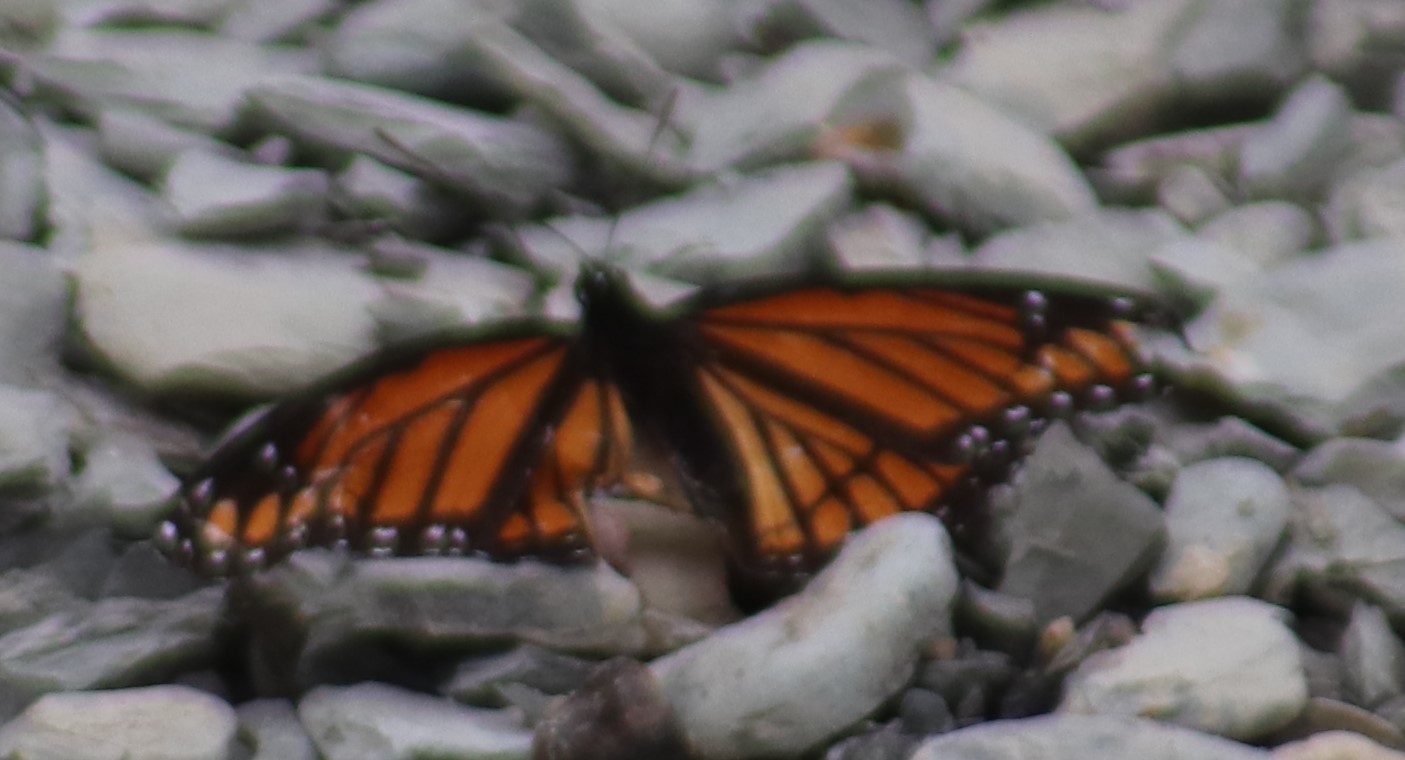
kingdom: Animalia
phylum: Arthropoda
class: Insecta
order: Lepidoptera
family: Nymphalidae
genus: Limenitis
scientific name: Limenitis archippus
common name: Viceroy
